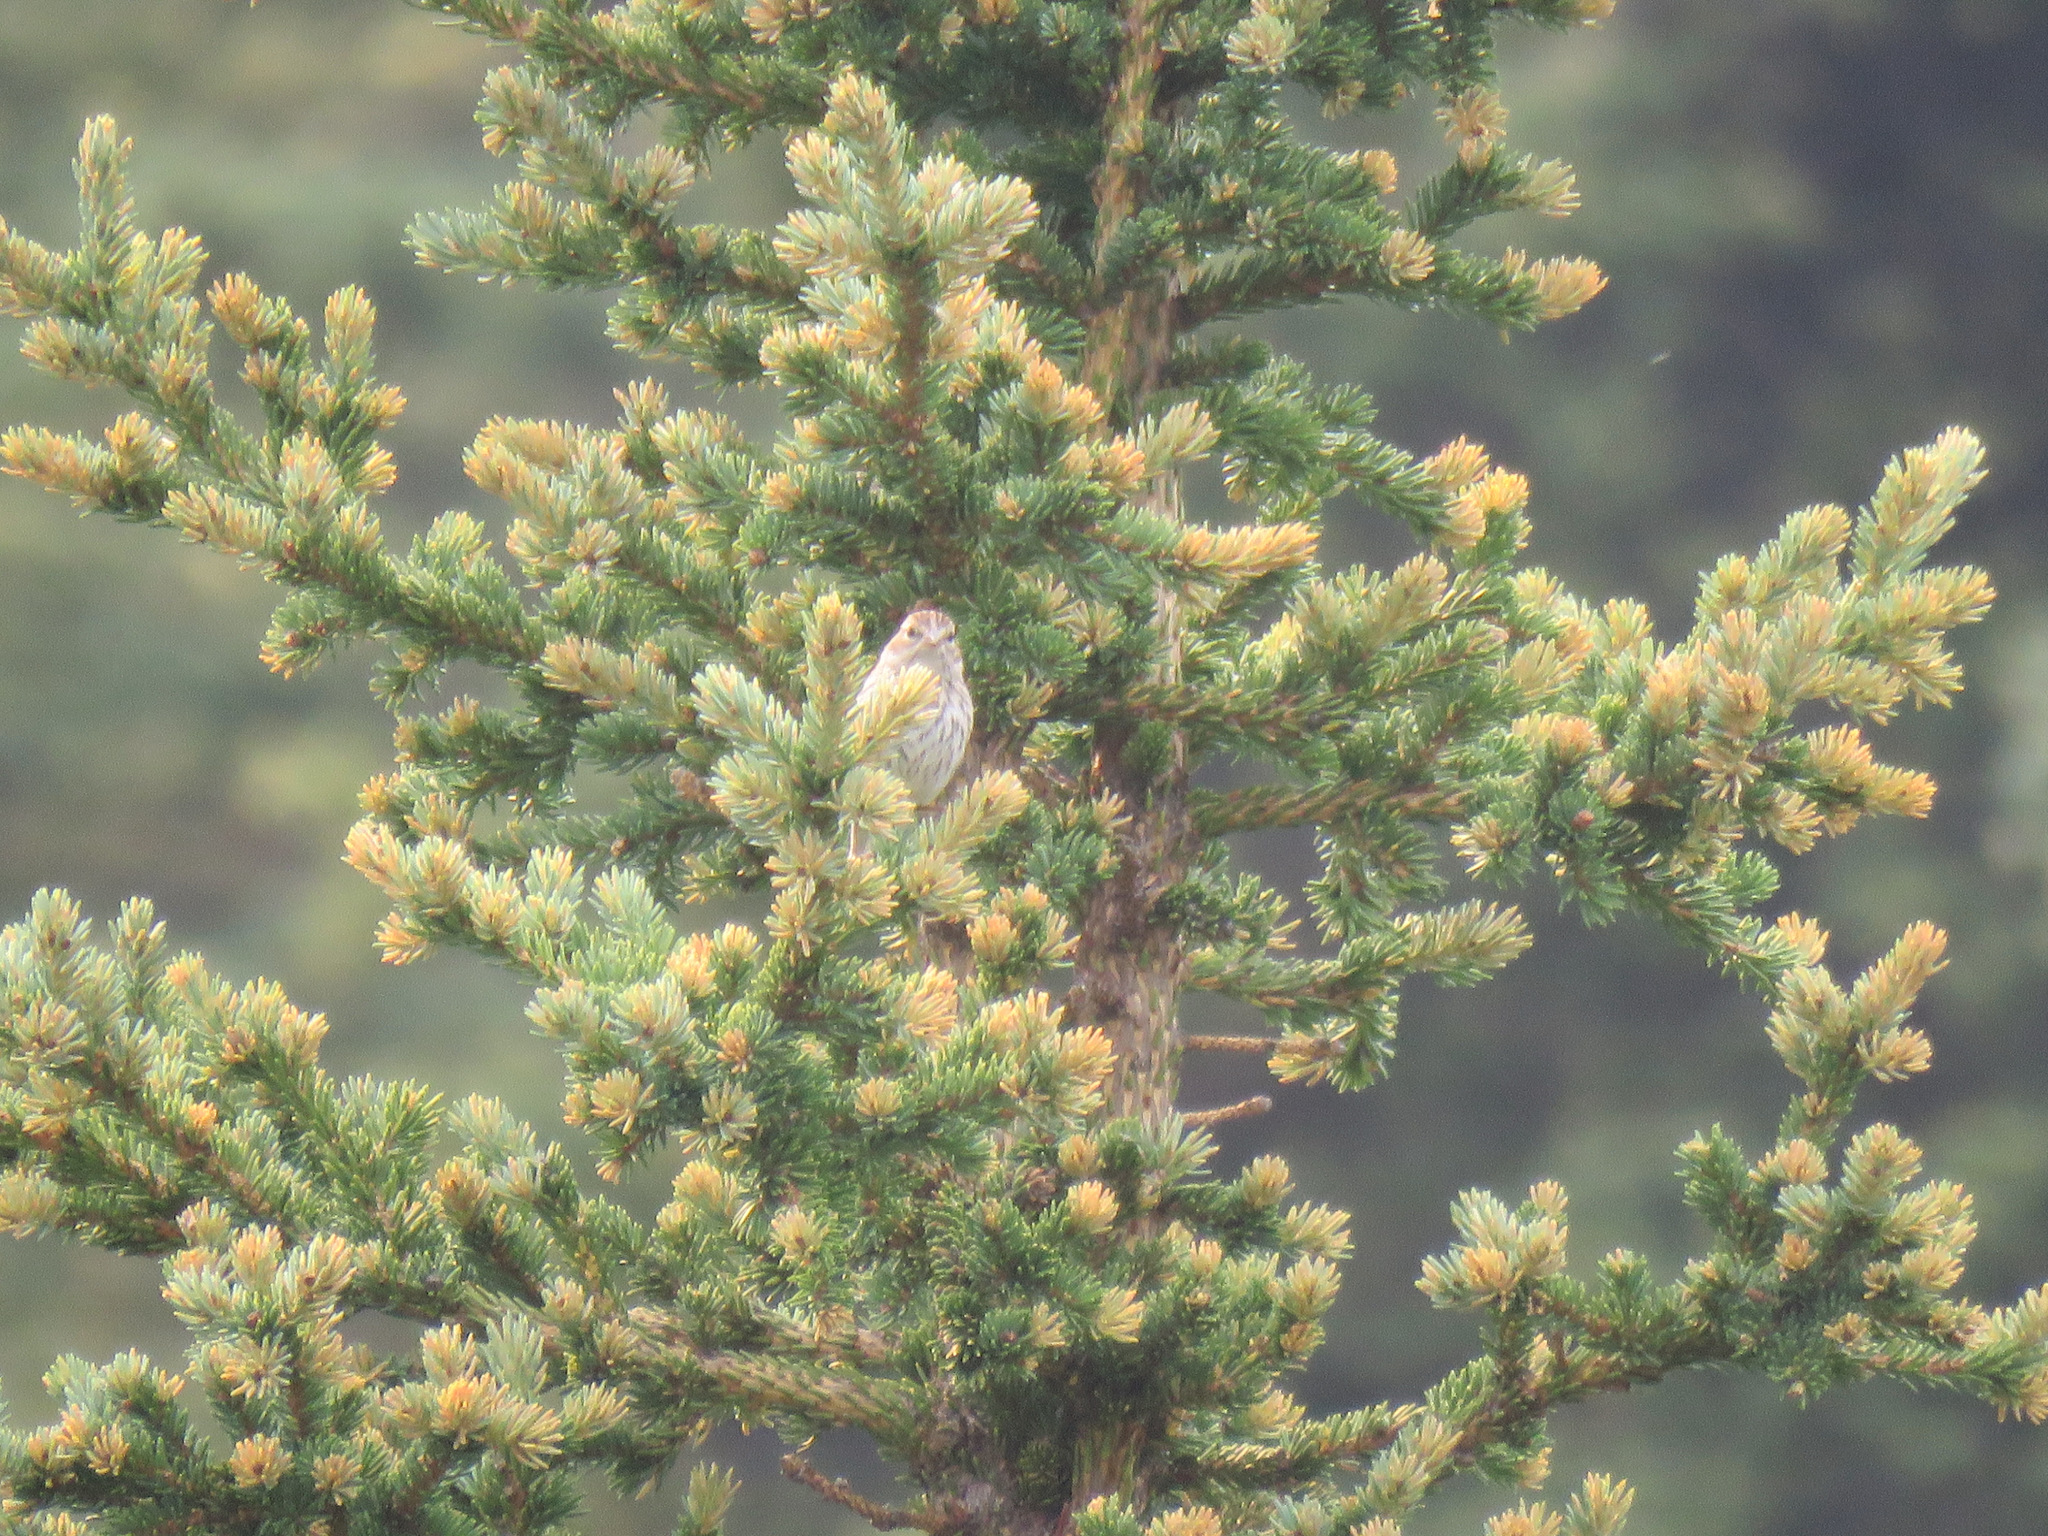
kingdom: Animalia
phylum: Chordata
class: Aves
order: Passeriformes
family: Passerellidae
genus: Spizella
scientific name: Spizella passerina
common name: Chipping sparrow
